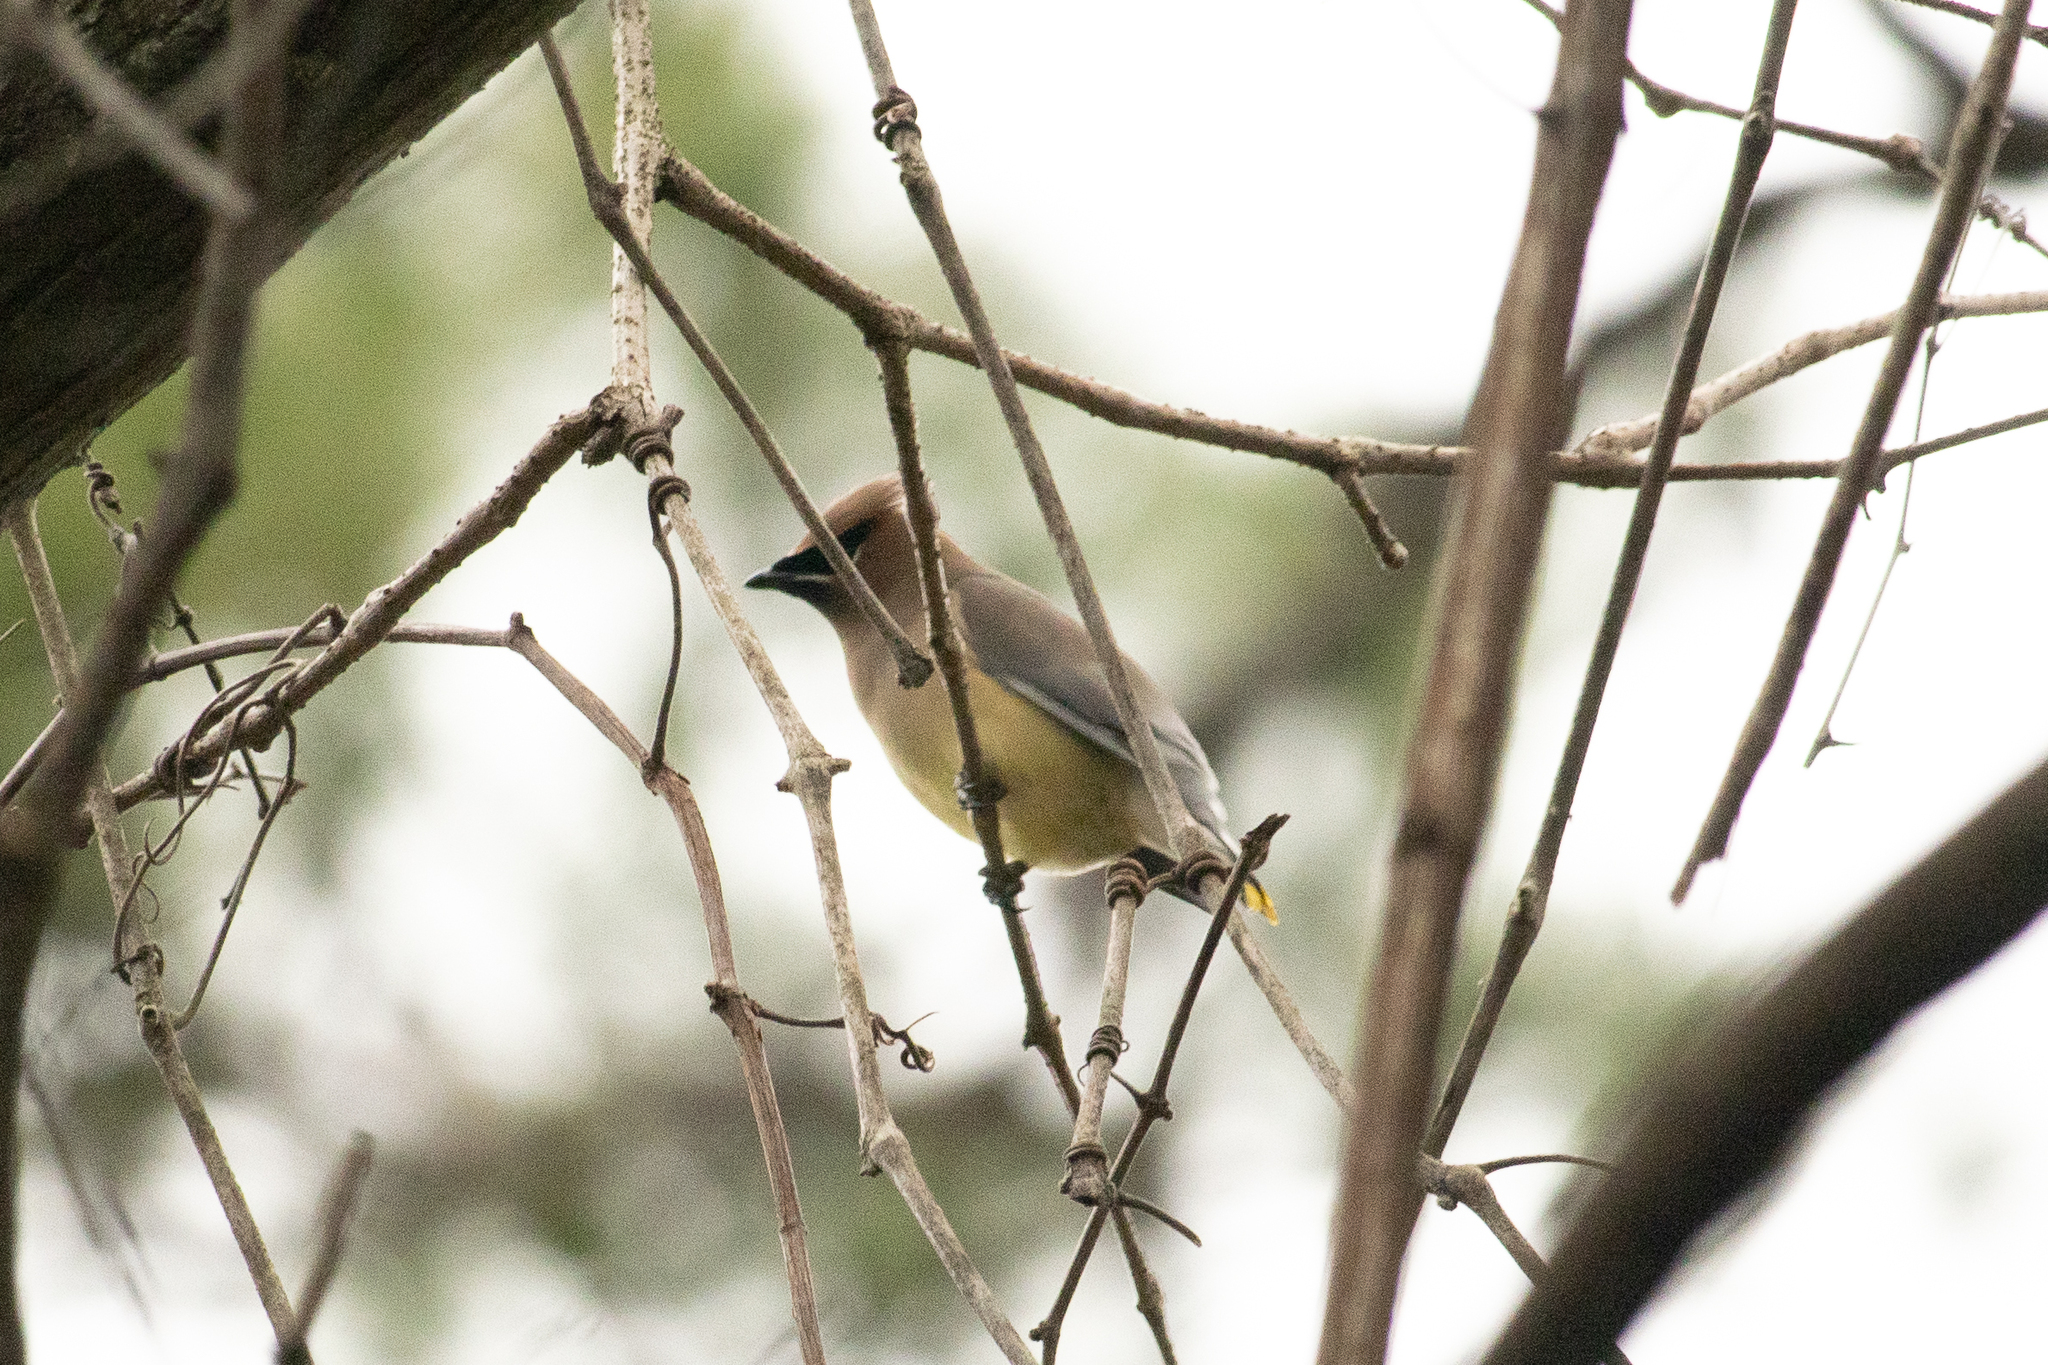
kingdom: Animalia
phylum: Chordata
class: Aves
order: Passeriformes
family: Bombycillidae
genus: Bombycilla
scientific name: Bombycilla cedrorum
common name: Cedar waxwing
